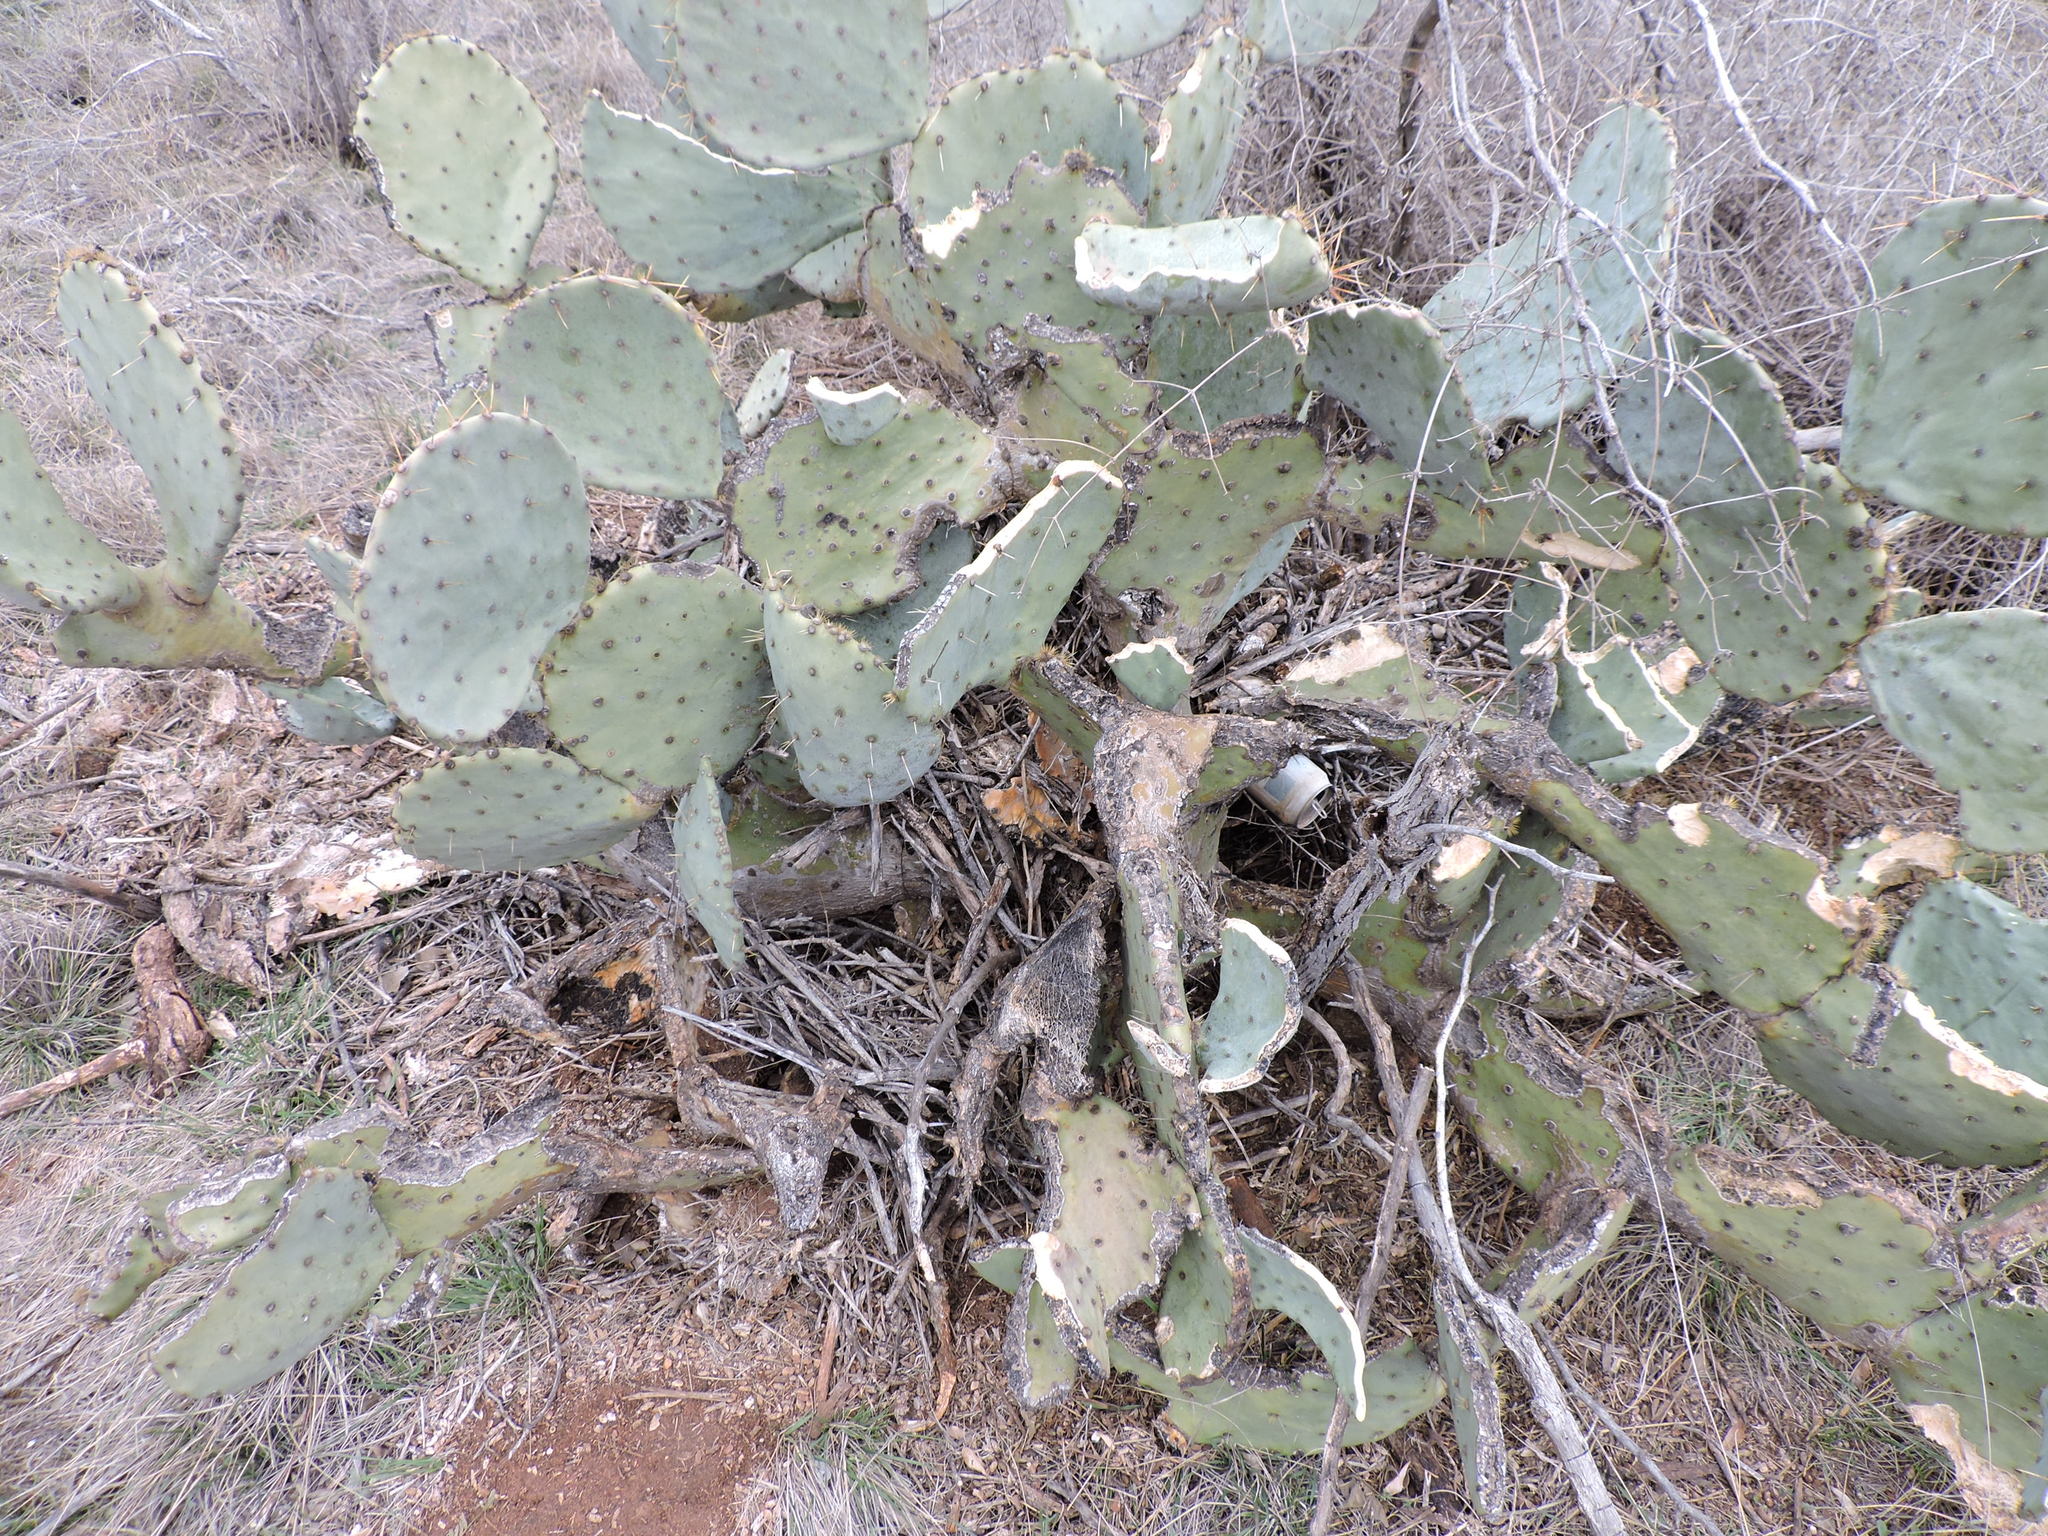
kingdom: Animalia
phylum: Chordata
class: Mammalia
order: Rodentia
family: Cricetidae
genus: Neotoma
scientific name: Neotoma micropus
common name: Southern plains woodrat
